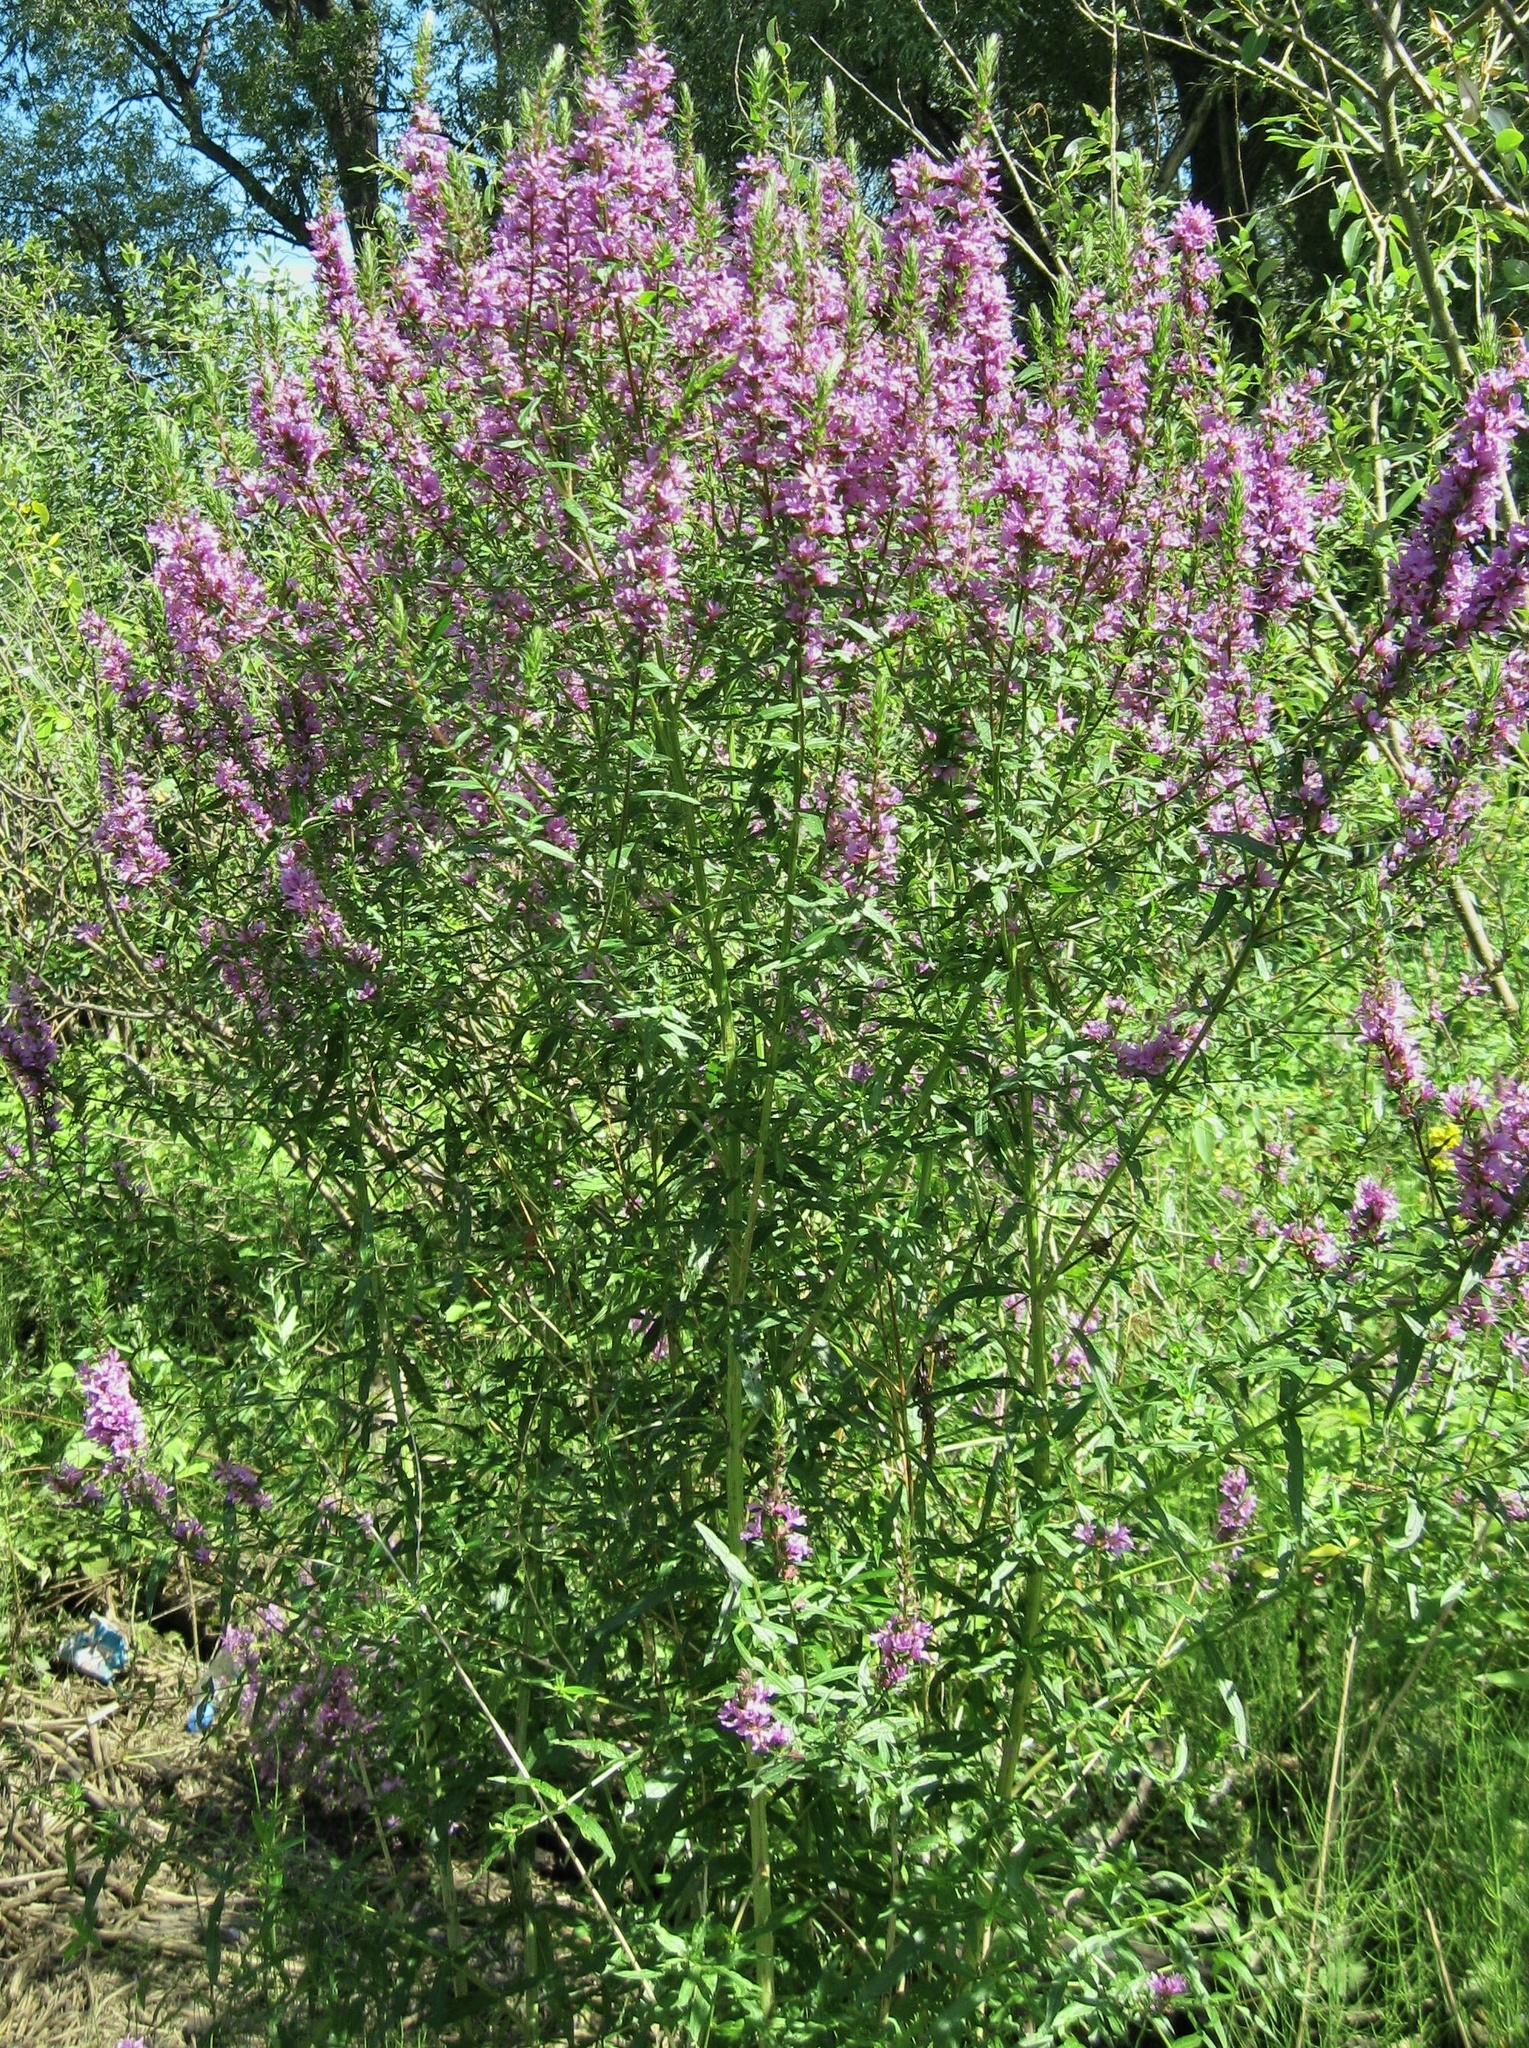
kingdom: Plantae
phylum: Tracheophyta
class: Magnoliopsida
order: Myrtales
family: Lythraceae
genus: Lythrum
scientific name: Lythrum salicaria
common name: Purple loosestrife
